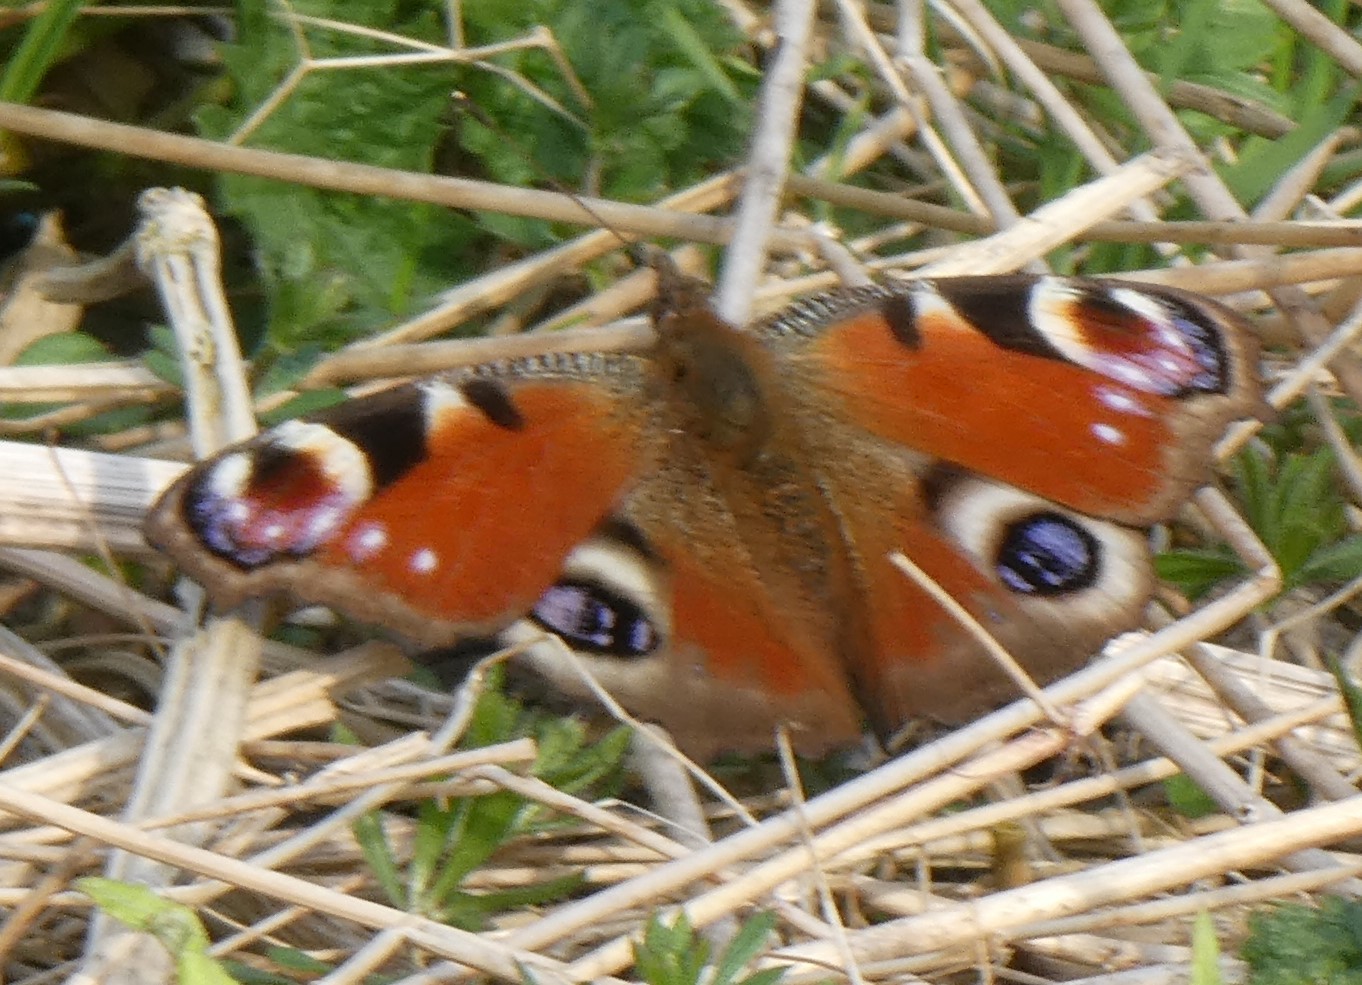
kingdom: Animalia
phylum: Arthropoda
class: Insecta
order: Lepidoptera
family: Nymphalidae
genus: Aglais
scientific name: Aglais io
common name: Peacock
